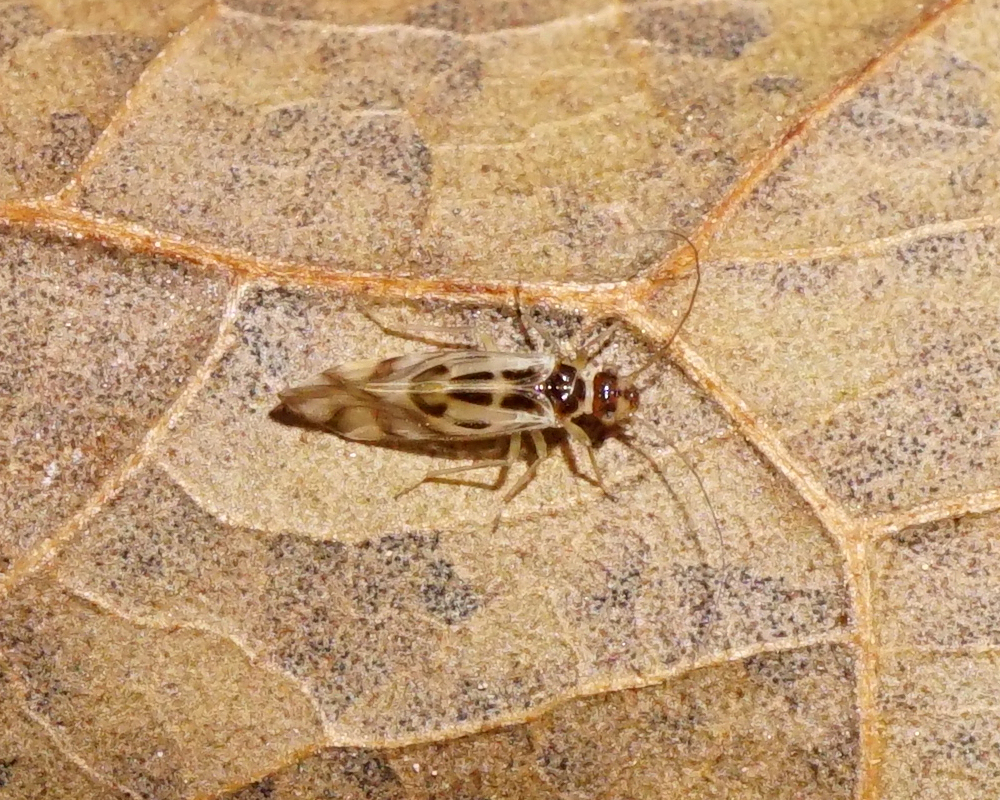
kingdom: Animalia
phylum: Arthropoda
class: Insecta
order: Psocodea
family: Stenopsocidae
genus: Graphopsocus
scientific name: Graphopsocus cruciatus
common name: Lizard bark louse
